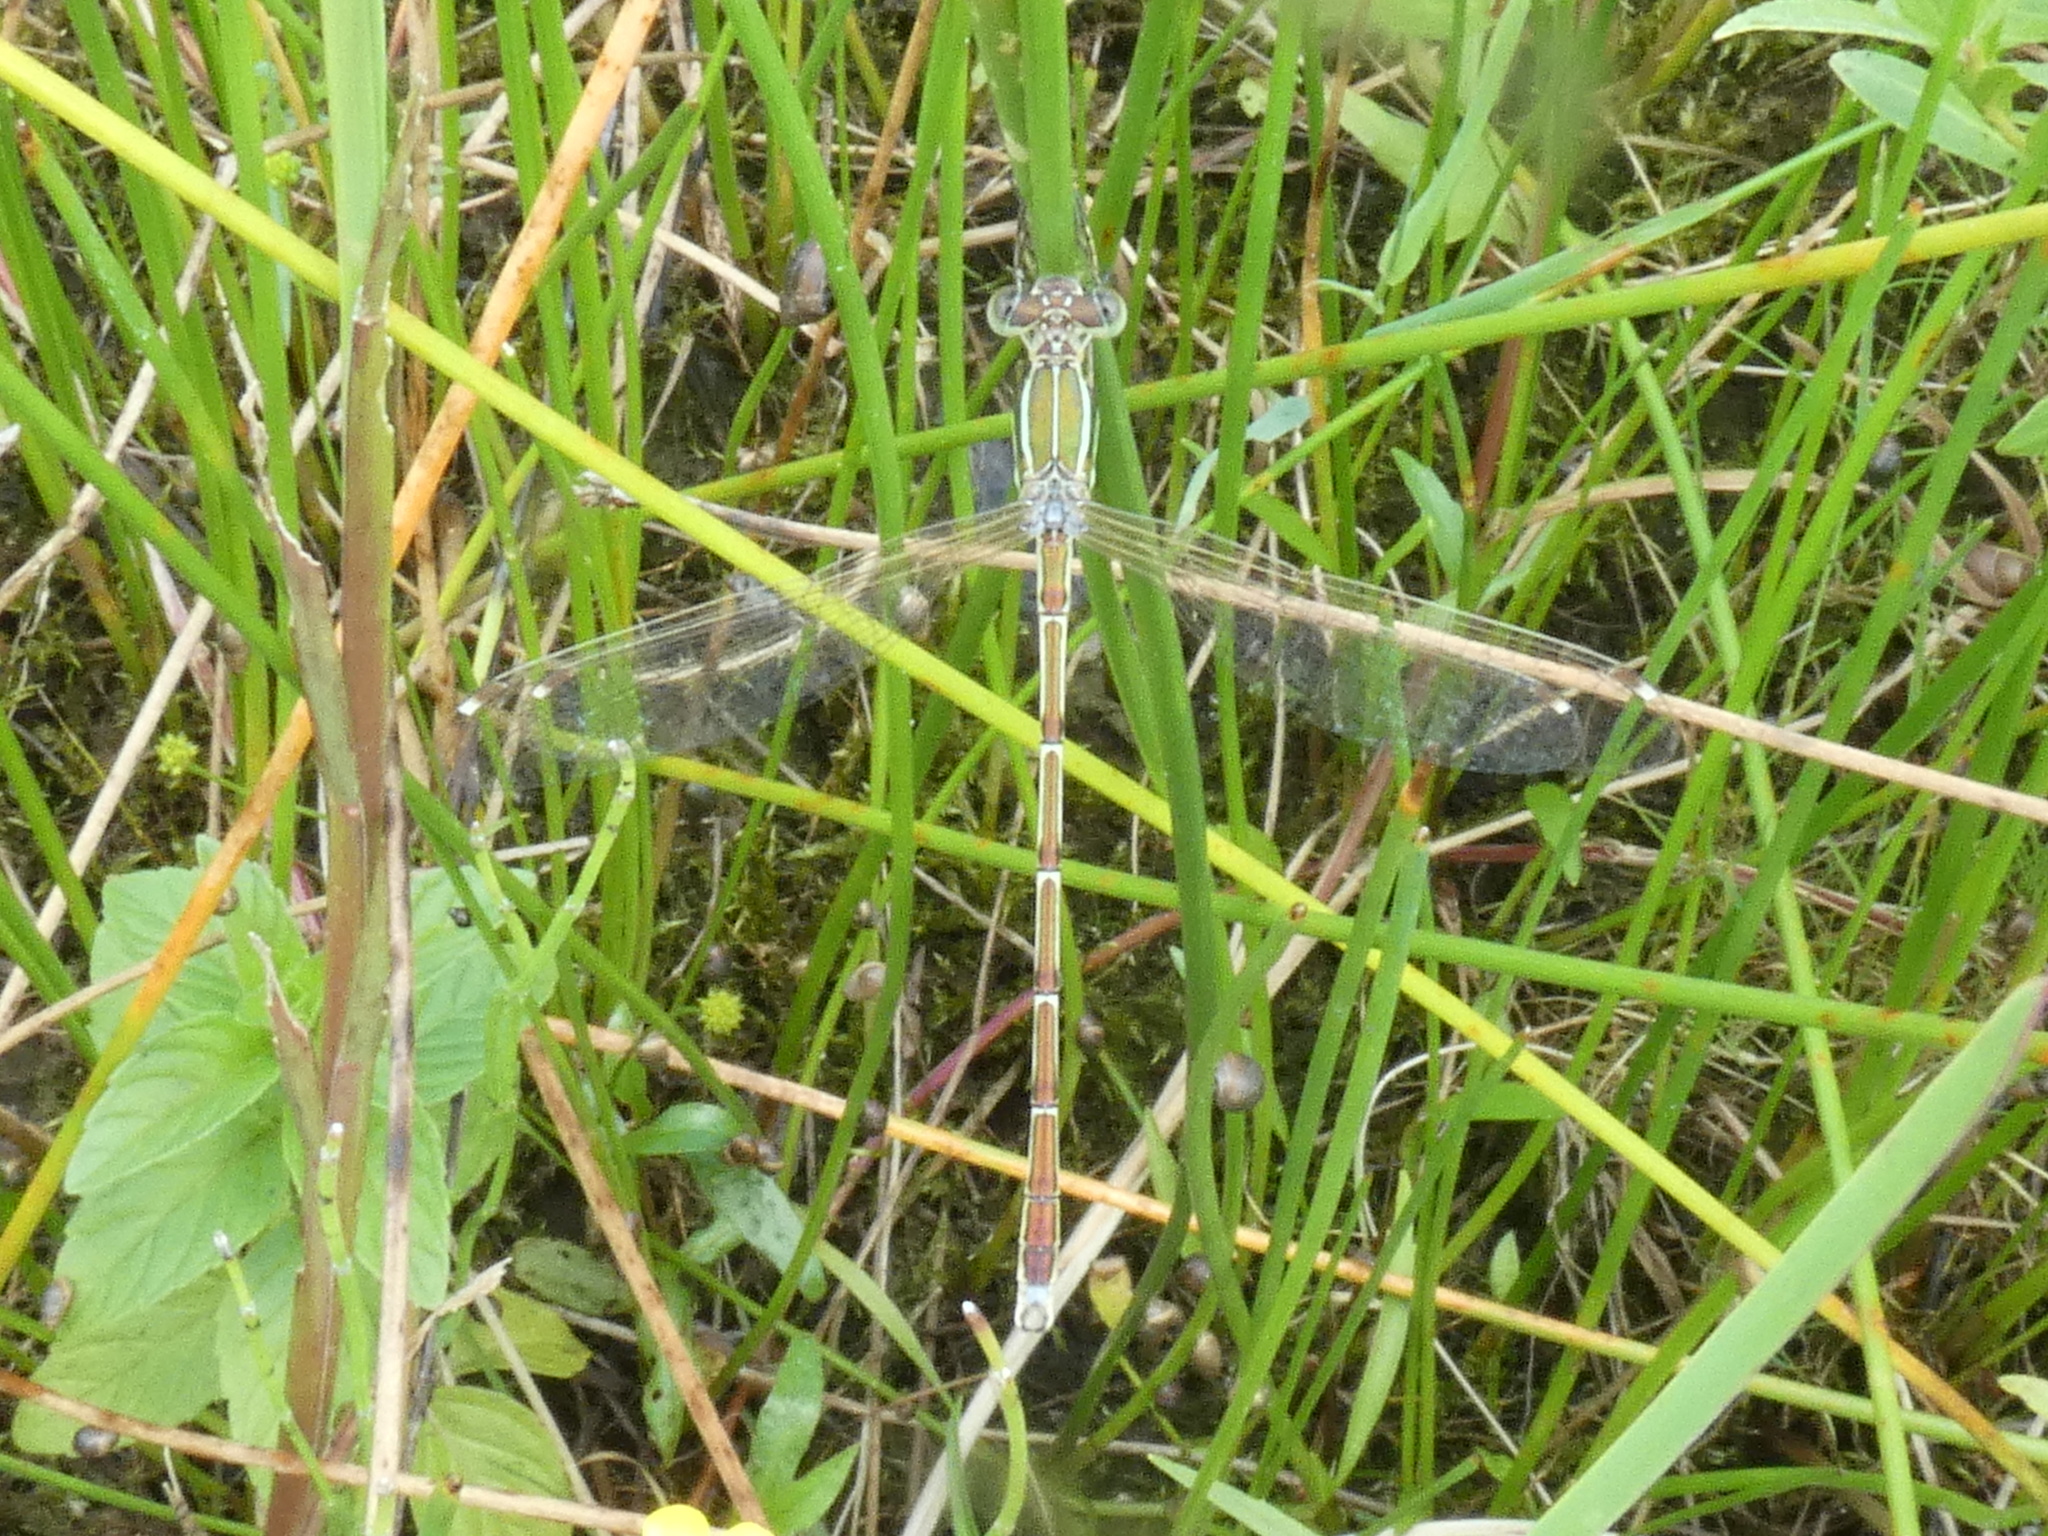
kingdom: Animalia
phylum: Arthropoda
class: Insecta
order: Odonata
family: Lestidae
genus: Lestes
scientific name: Lestes barbarus
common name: Migrant spreadwing
